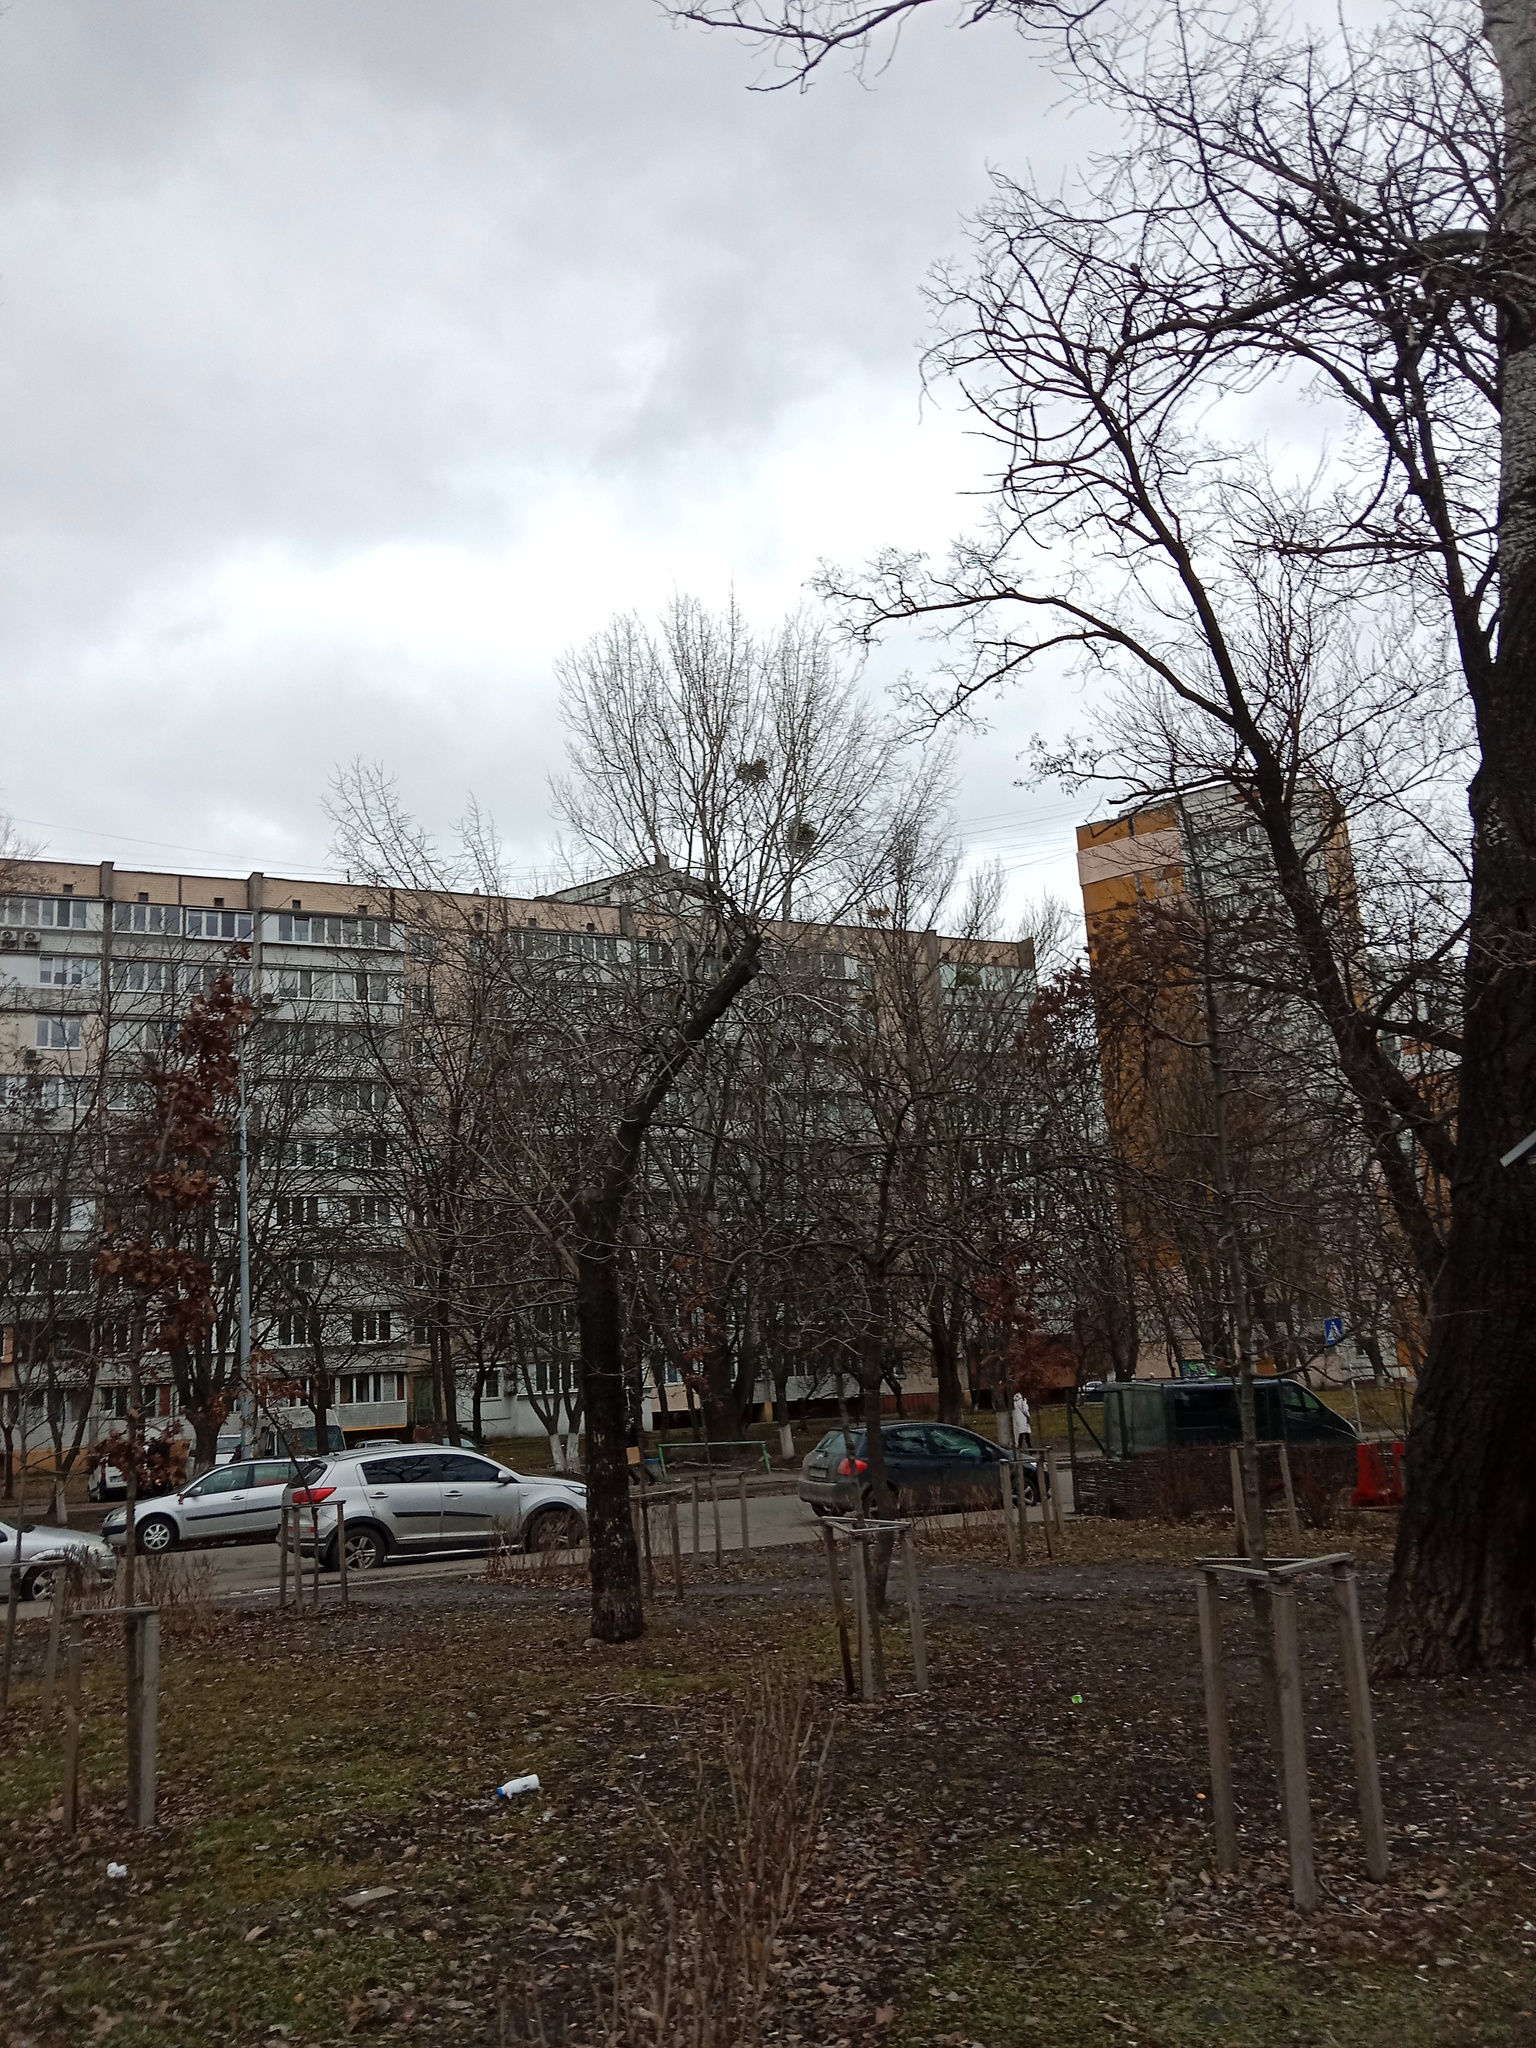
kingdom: Plantae
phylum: Tracheophyta
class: Magnoliopsida
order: Santalales
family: Viscaceae
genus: Viscum
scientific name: Viscum album
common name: Mistletoe
